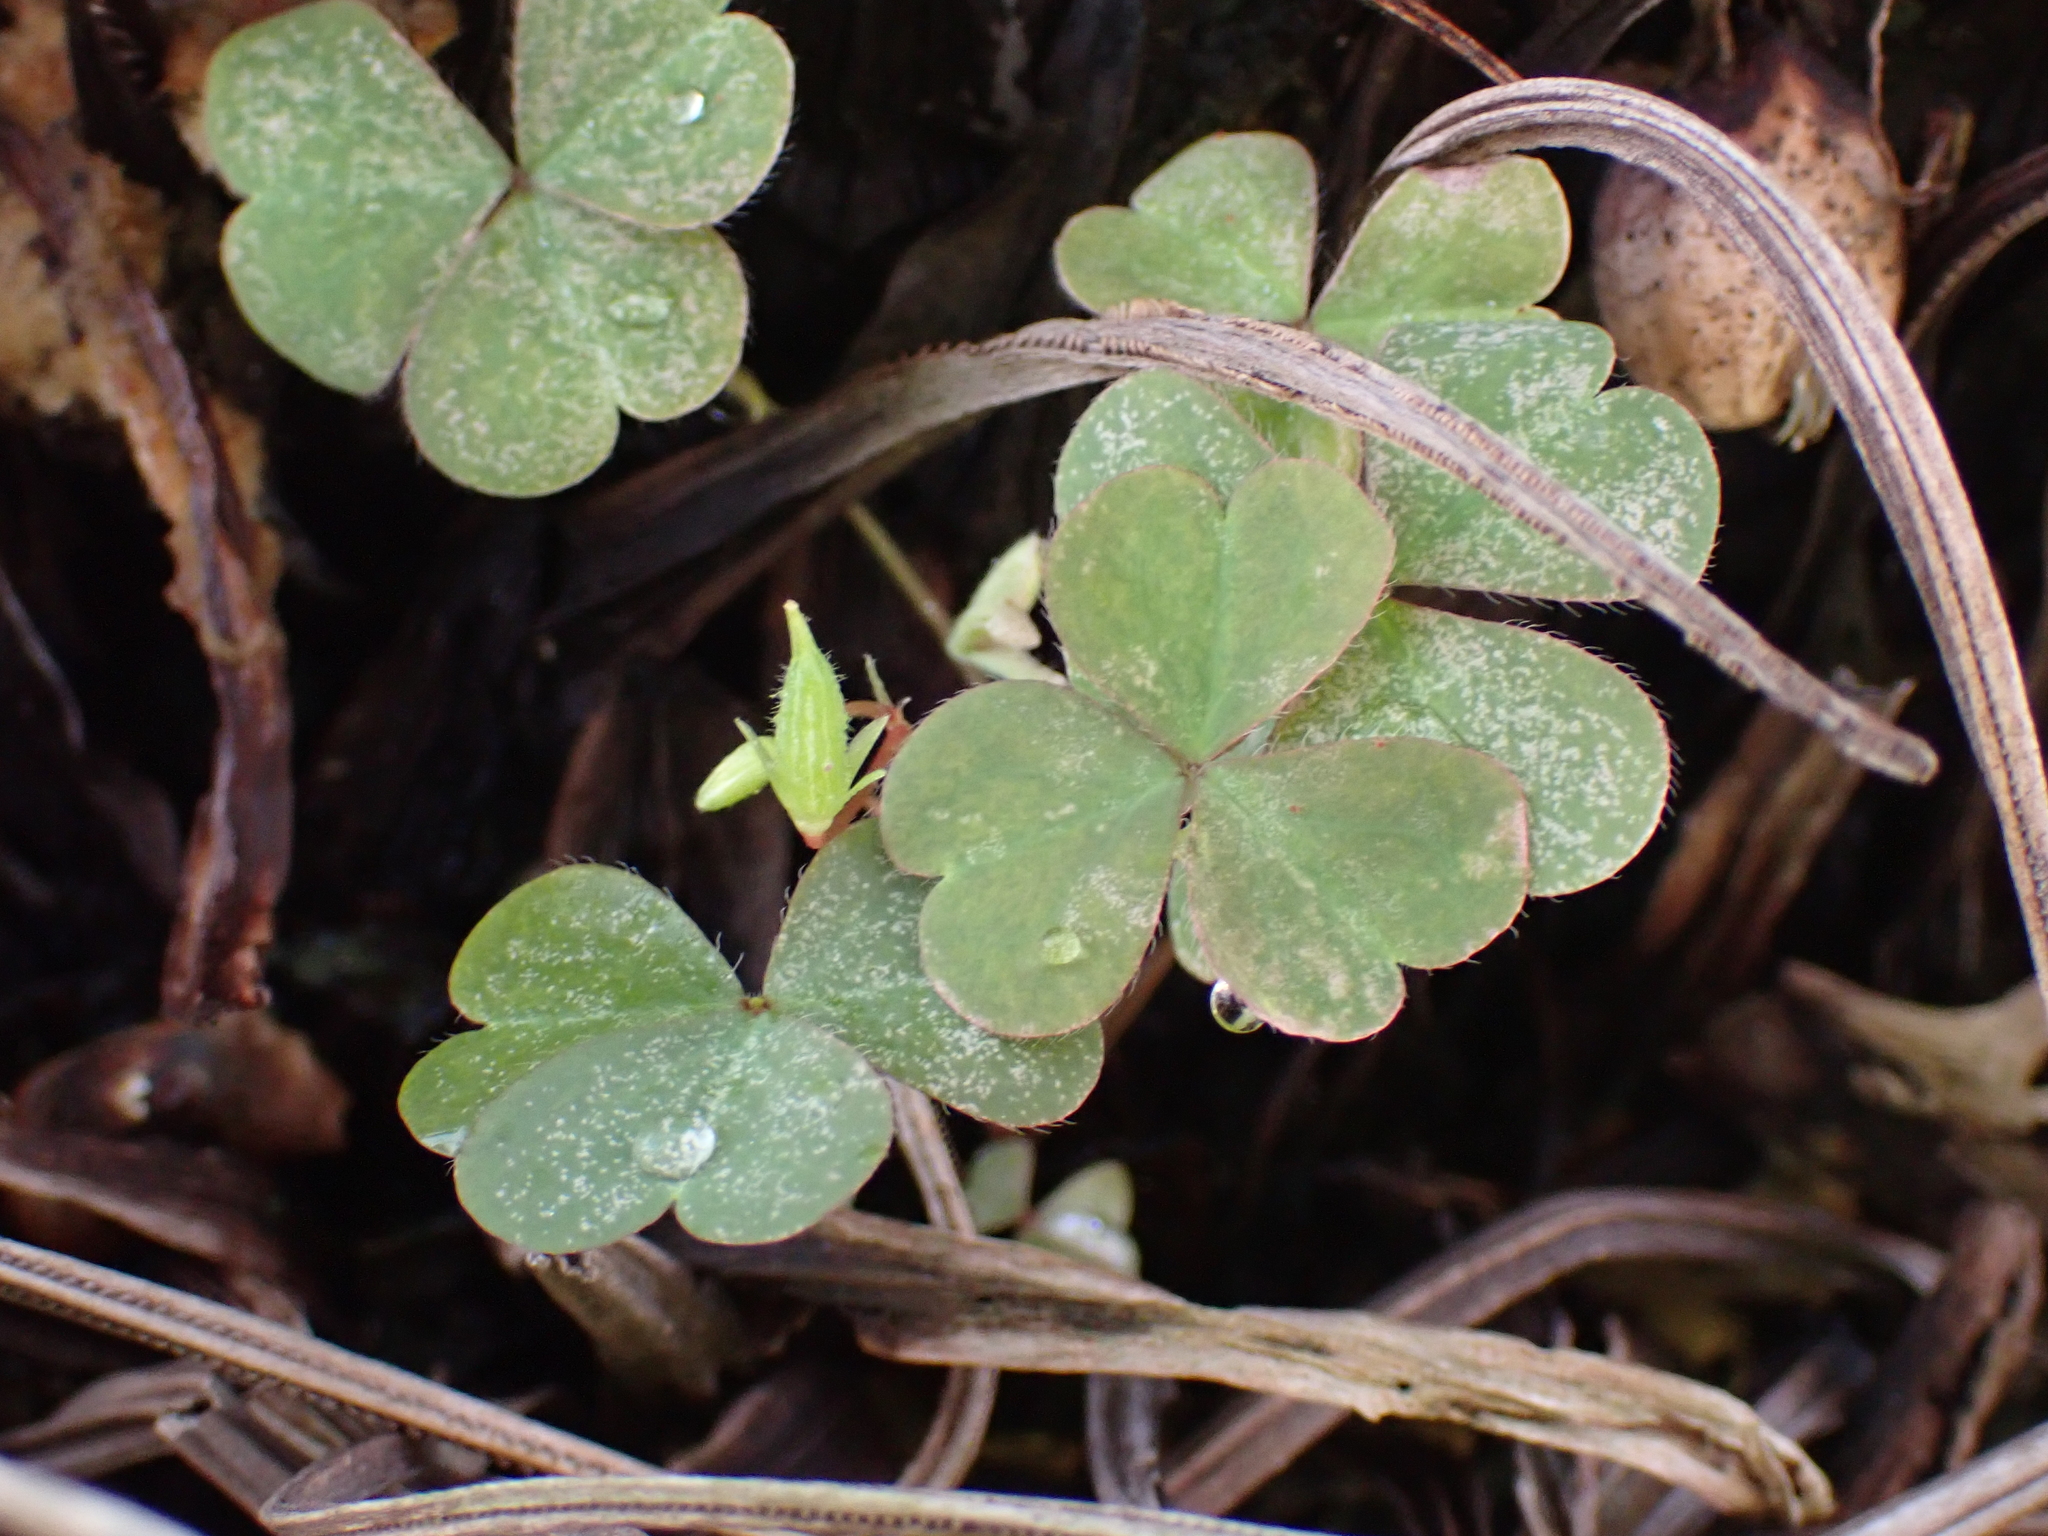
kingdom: Plantae
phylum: Tracheophyta
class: Magnoliopsida
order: Oxalidales
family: Oxalidaceae
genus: Oxalis
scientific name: Oxalis corniculata
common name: Procumbent yellow-sorrel
